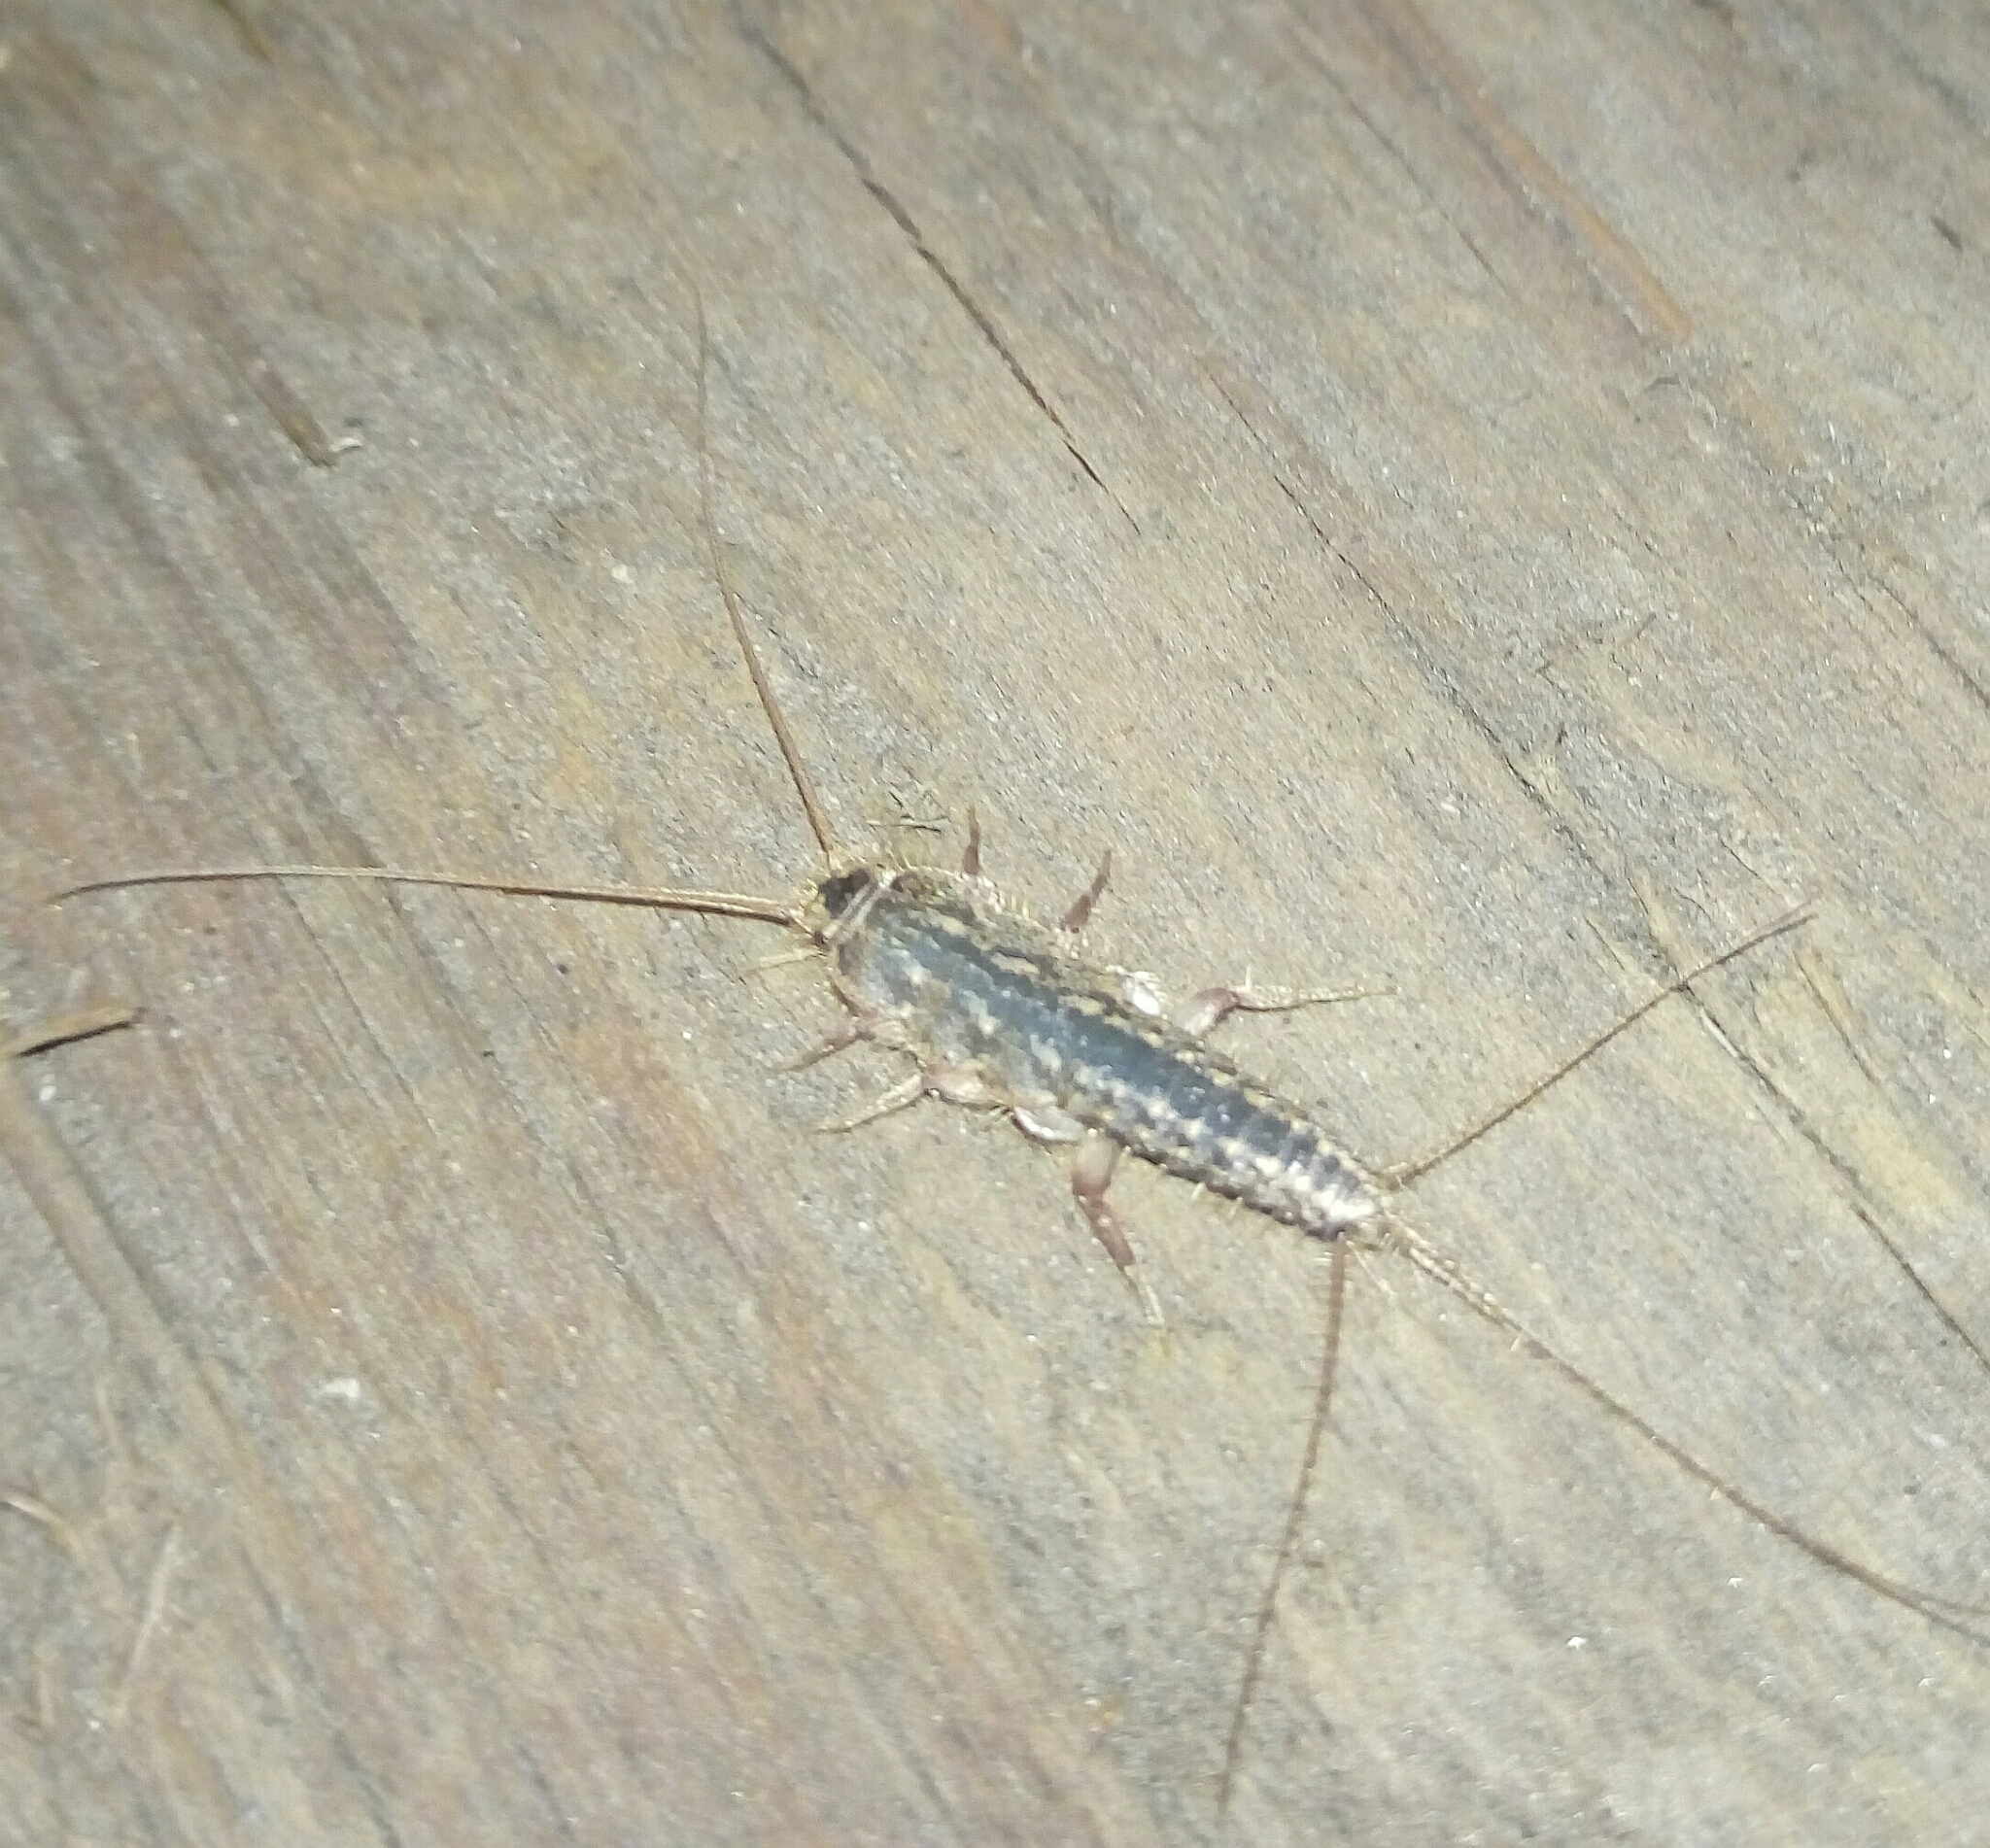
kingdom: Animalia
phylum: Arthropoda
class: Insecta
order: Zygentoma
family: Lepismatidae
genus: Ctenolepisma
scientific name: Ctenolepisma lineata
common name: Four-lined silverfish
